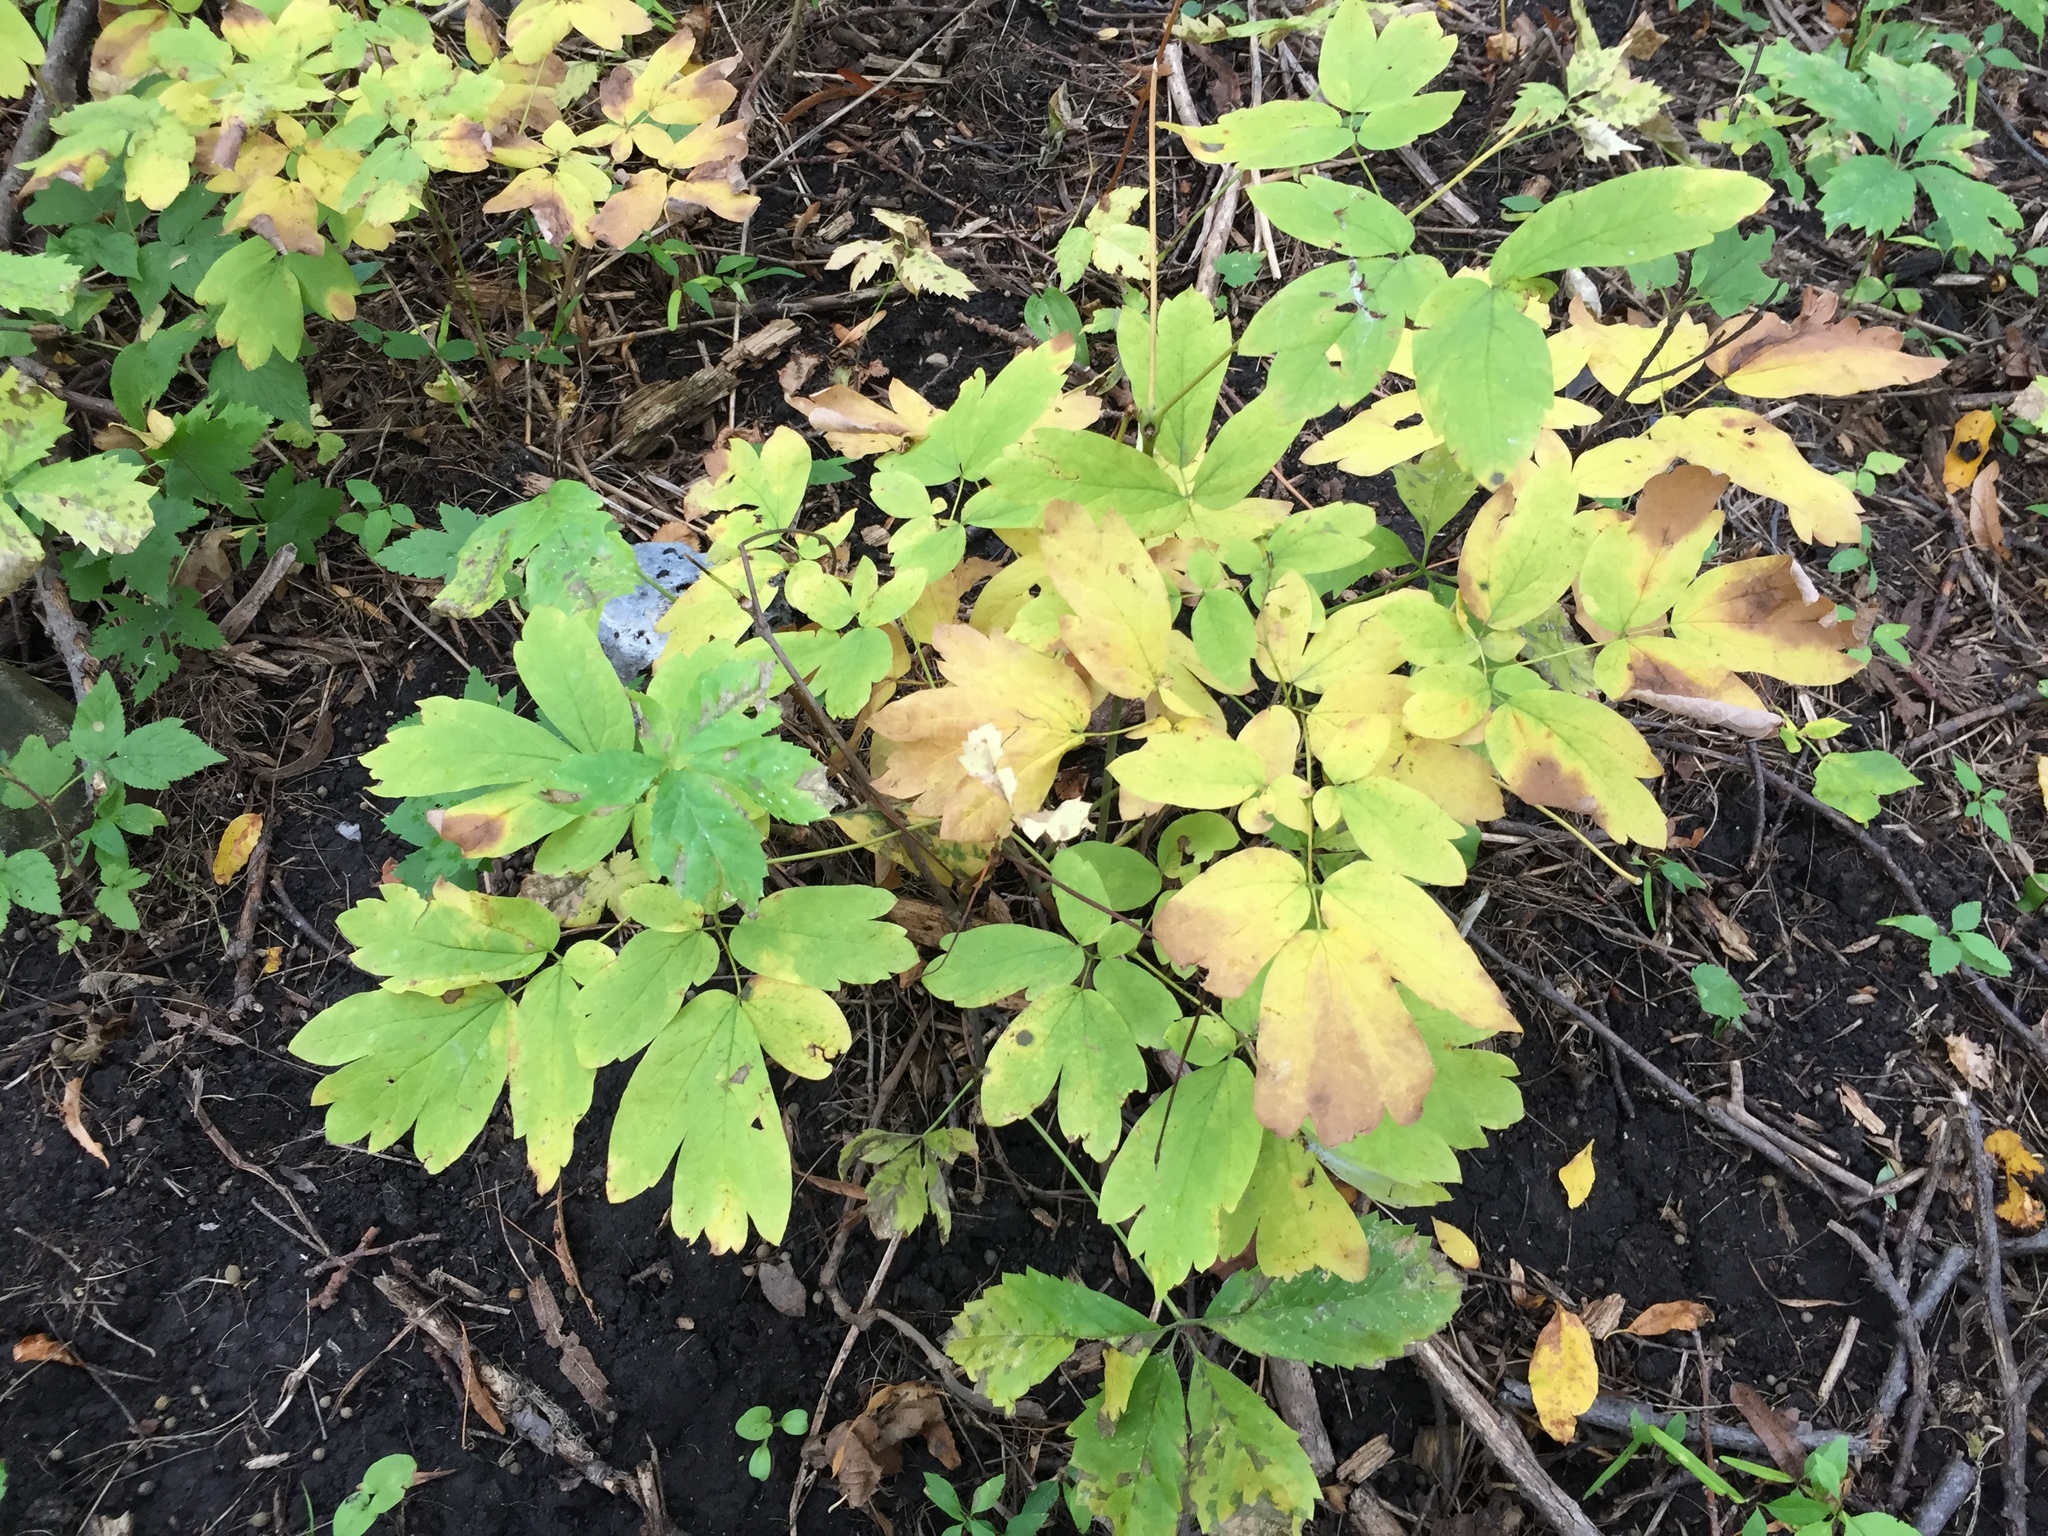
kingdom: Plantae
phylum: Tracheophyta
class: Magnoliopsida
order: Ranunculales
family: Berberidaceae
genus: Caulophyllum
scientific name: Caulophyllum thalictroides
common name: Blue cohosh
